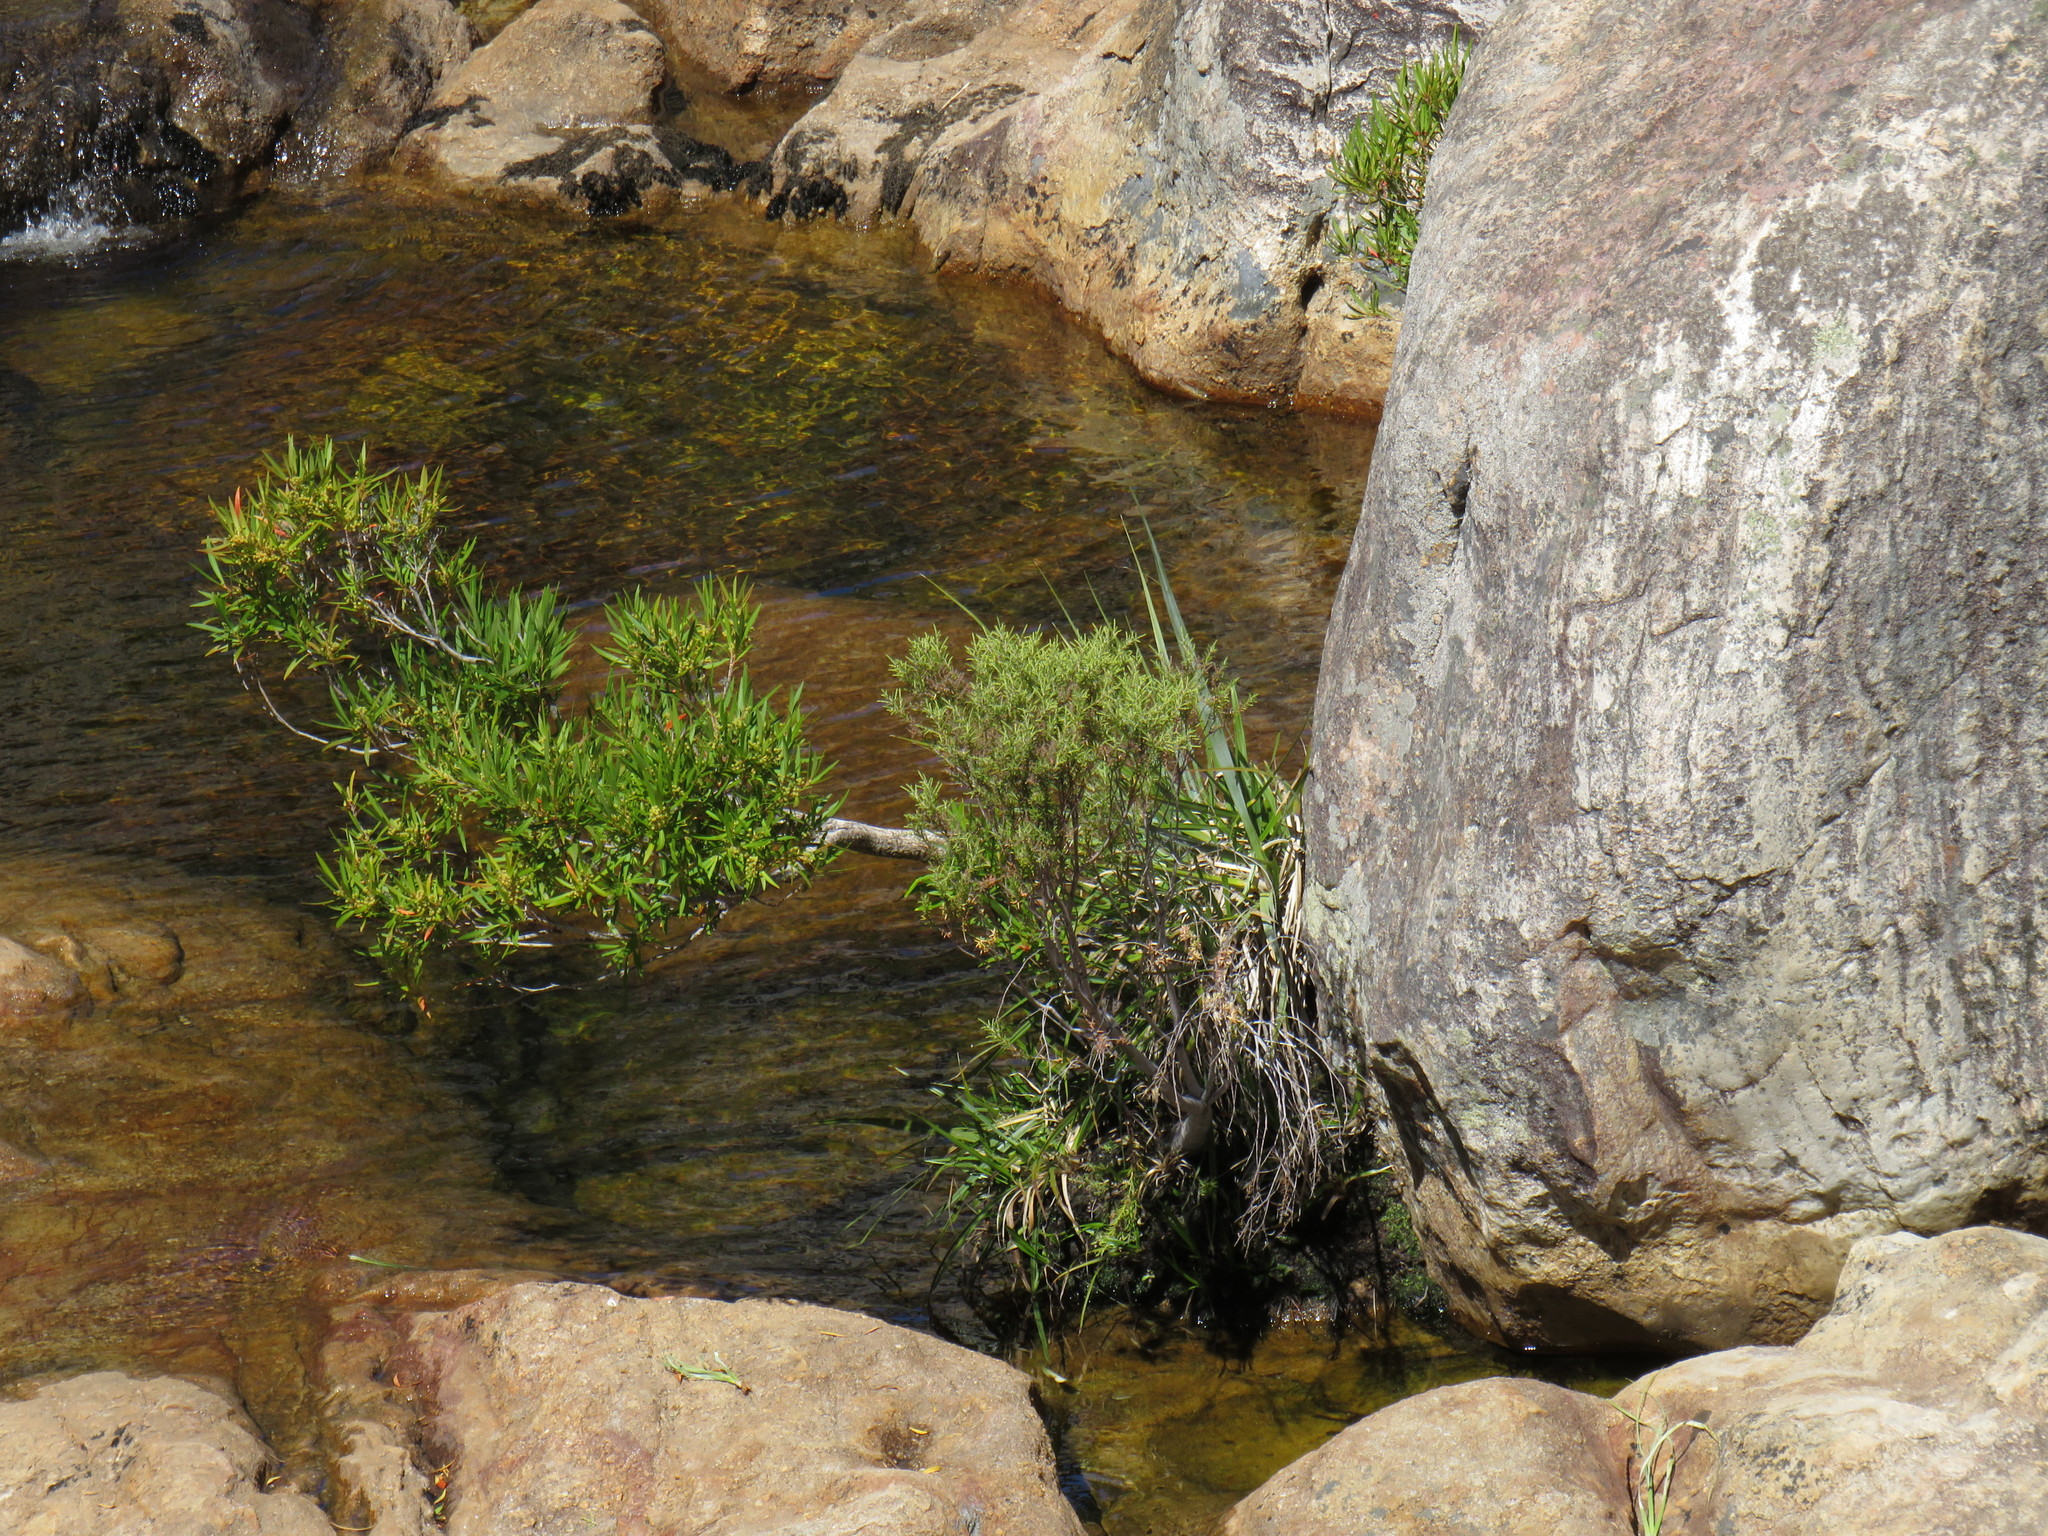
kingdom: Plantae
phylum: Tracheophyta
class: Magnoliopsida
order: Myrtales
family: Myrtaceae
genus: Callistemon
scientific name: Callistemon lanceolatus
